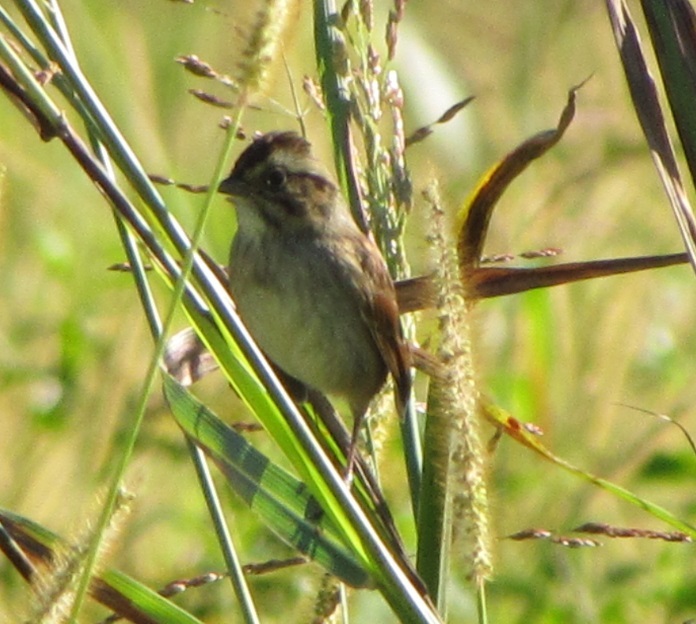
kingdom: Animalia
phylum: Chordata
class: Aves
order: Passeriformes
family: Passerellidae
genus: Melospiza
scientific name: Melospiza georgiana
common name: Swamp sparrow
